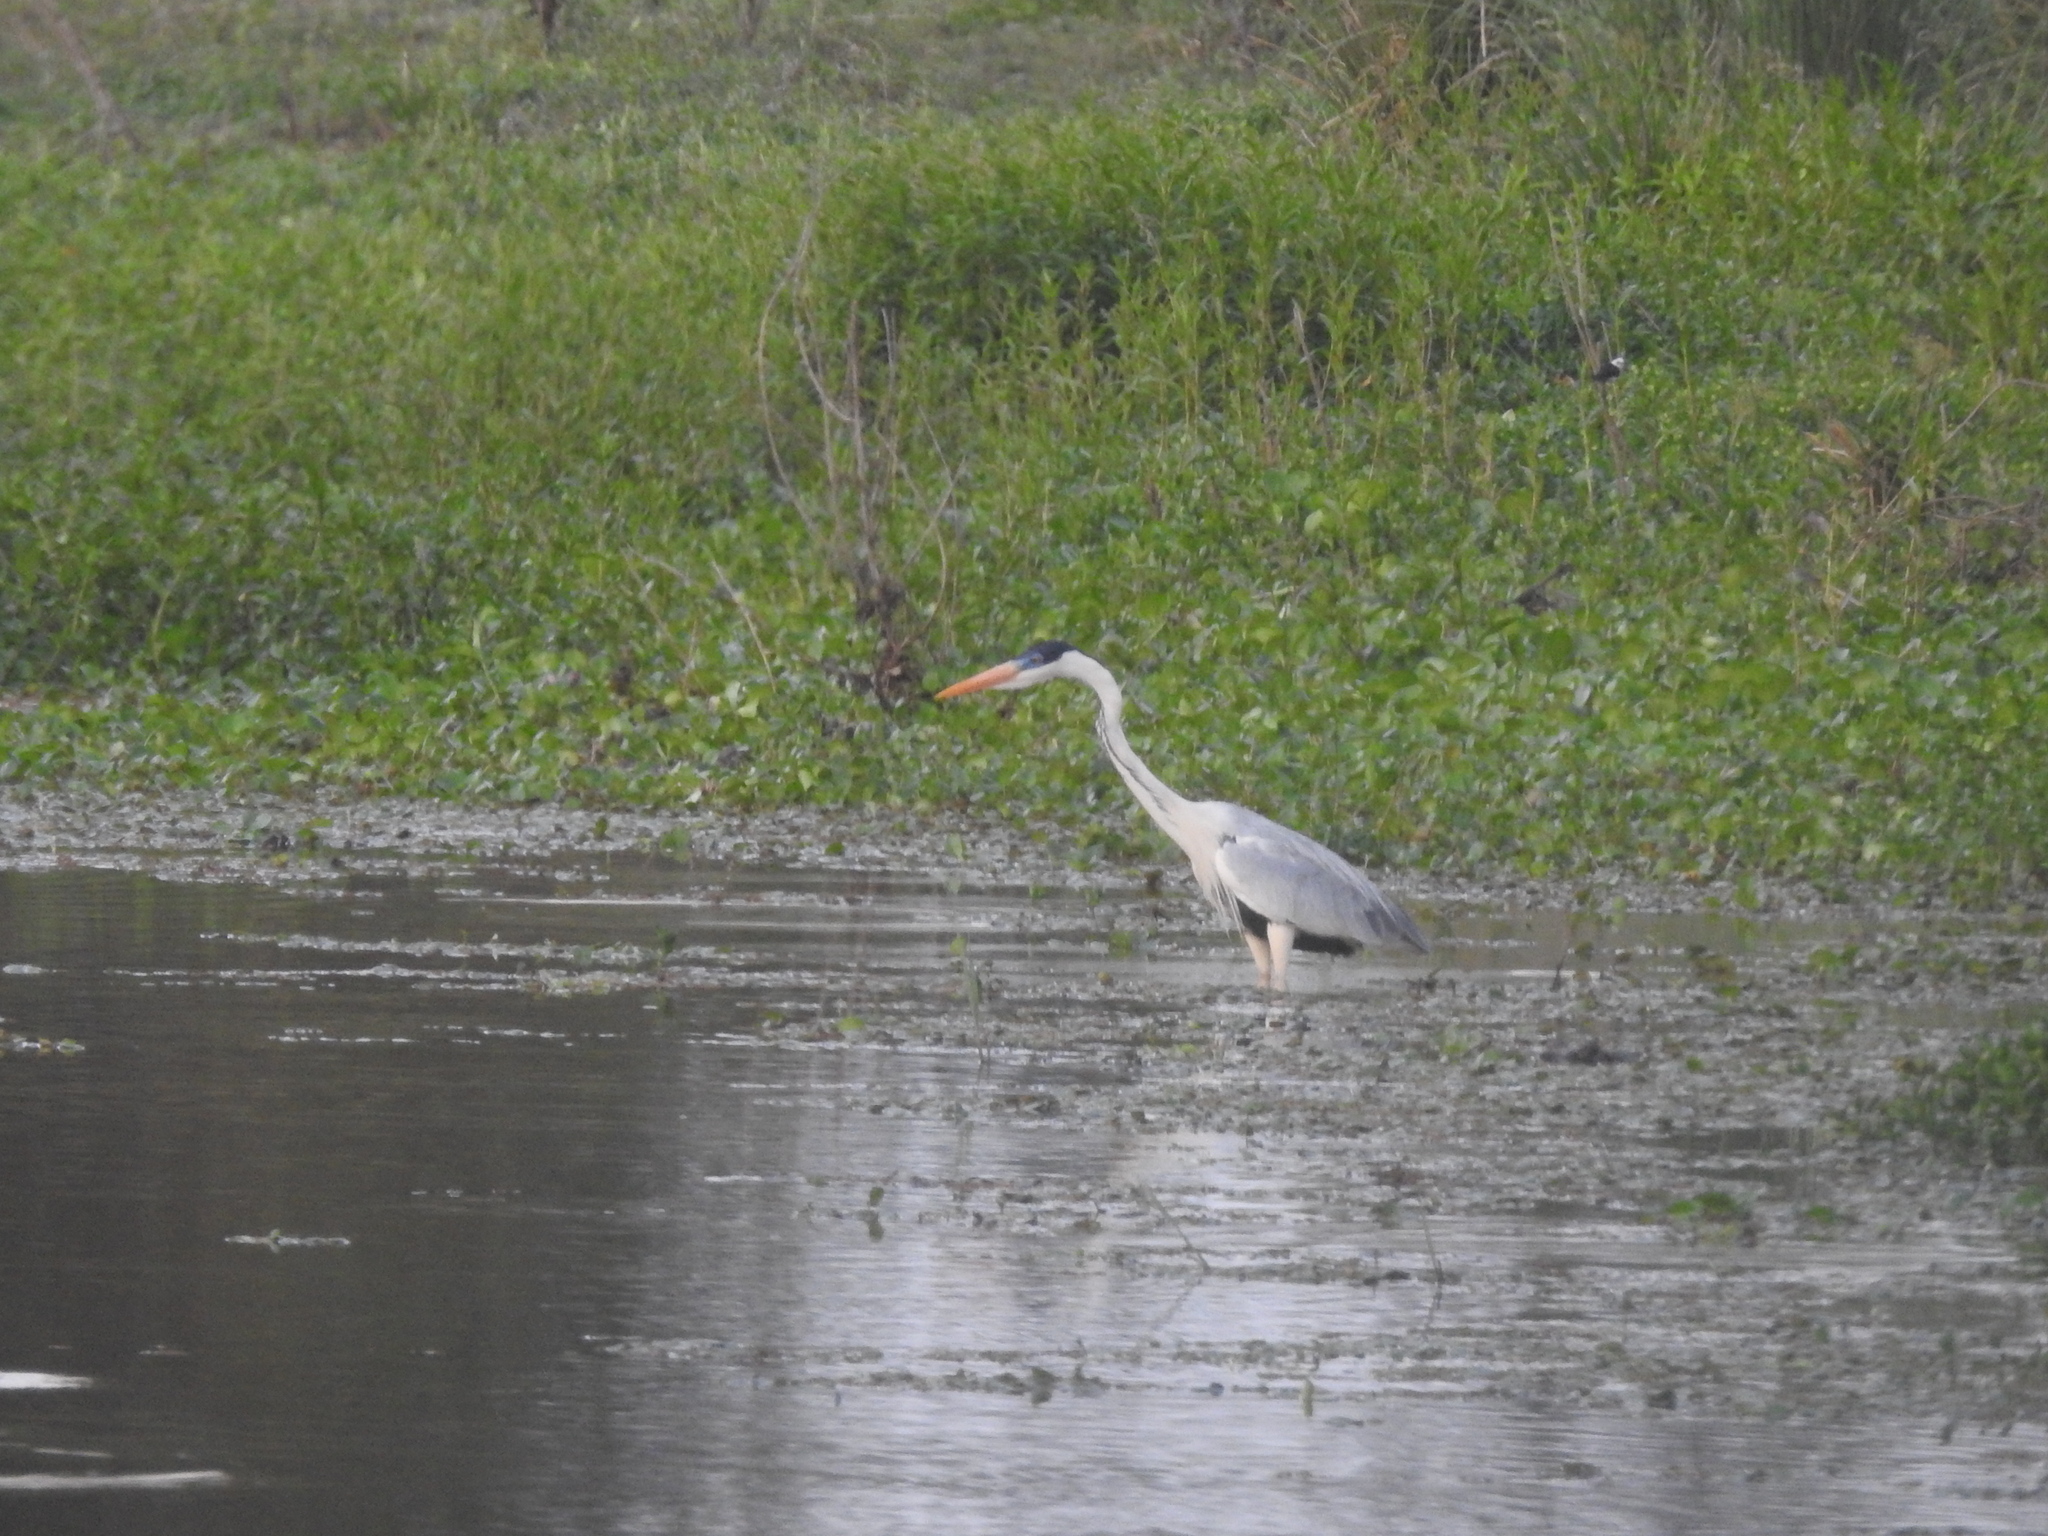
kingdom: Animalia
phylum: Chordata
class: Aves
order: Pelecaniformes
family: Ardeidae
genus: Ardea
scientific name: Ardea cocoi
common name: Cocoi heron
